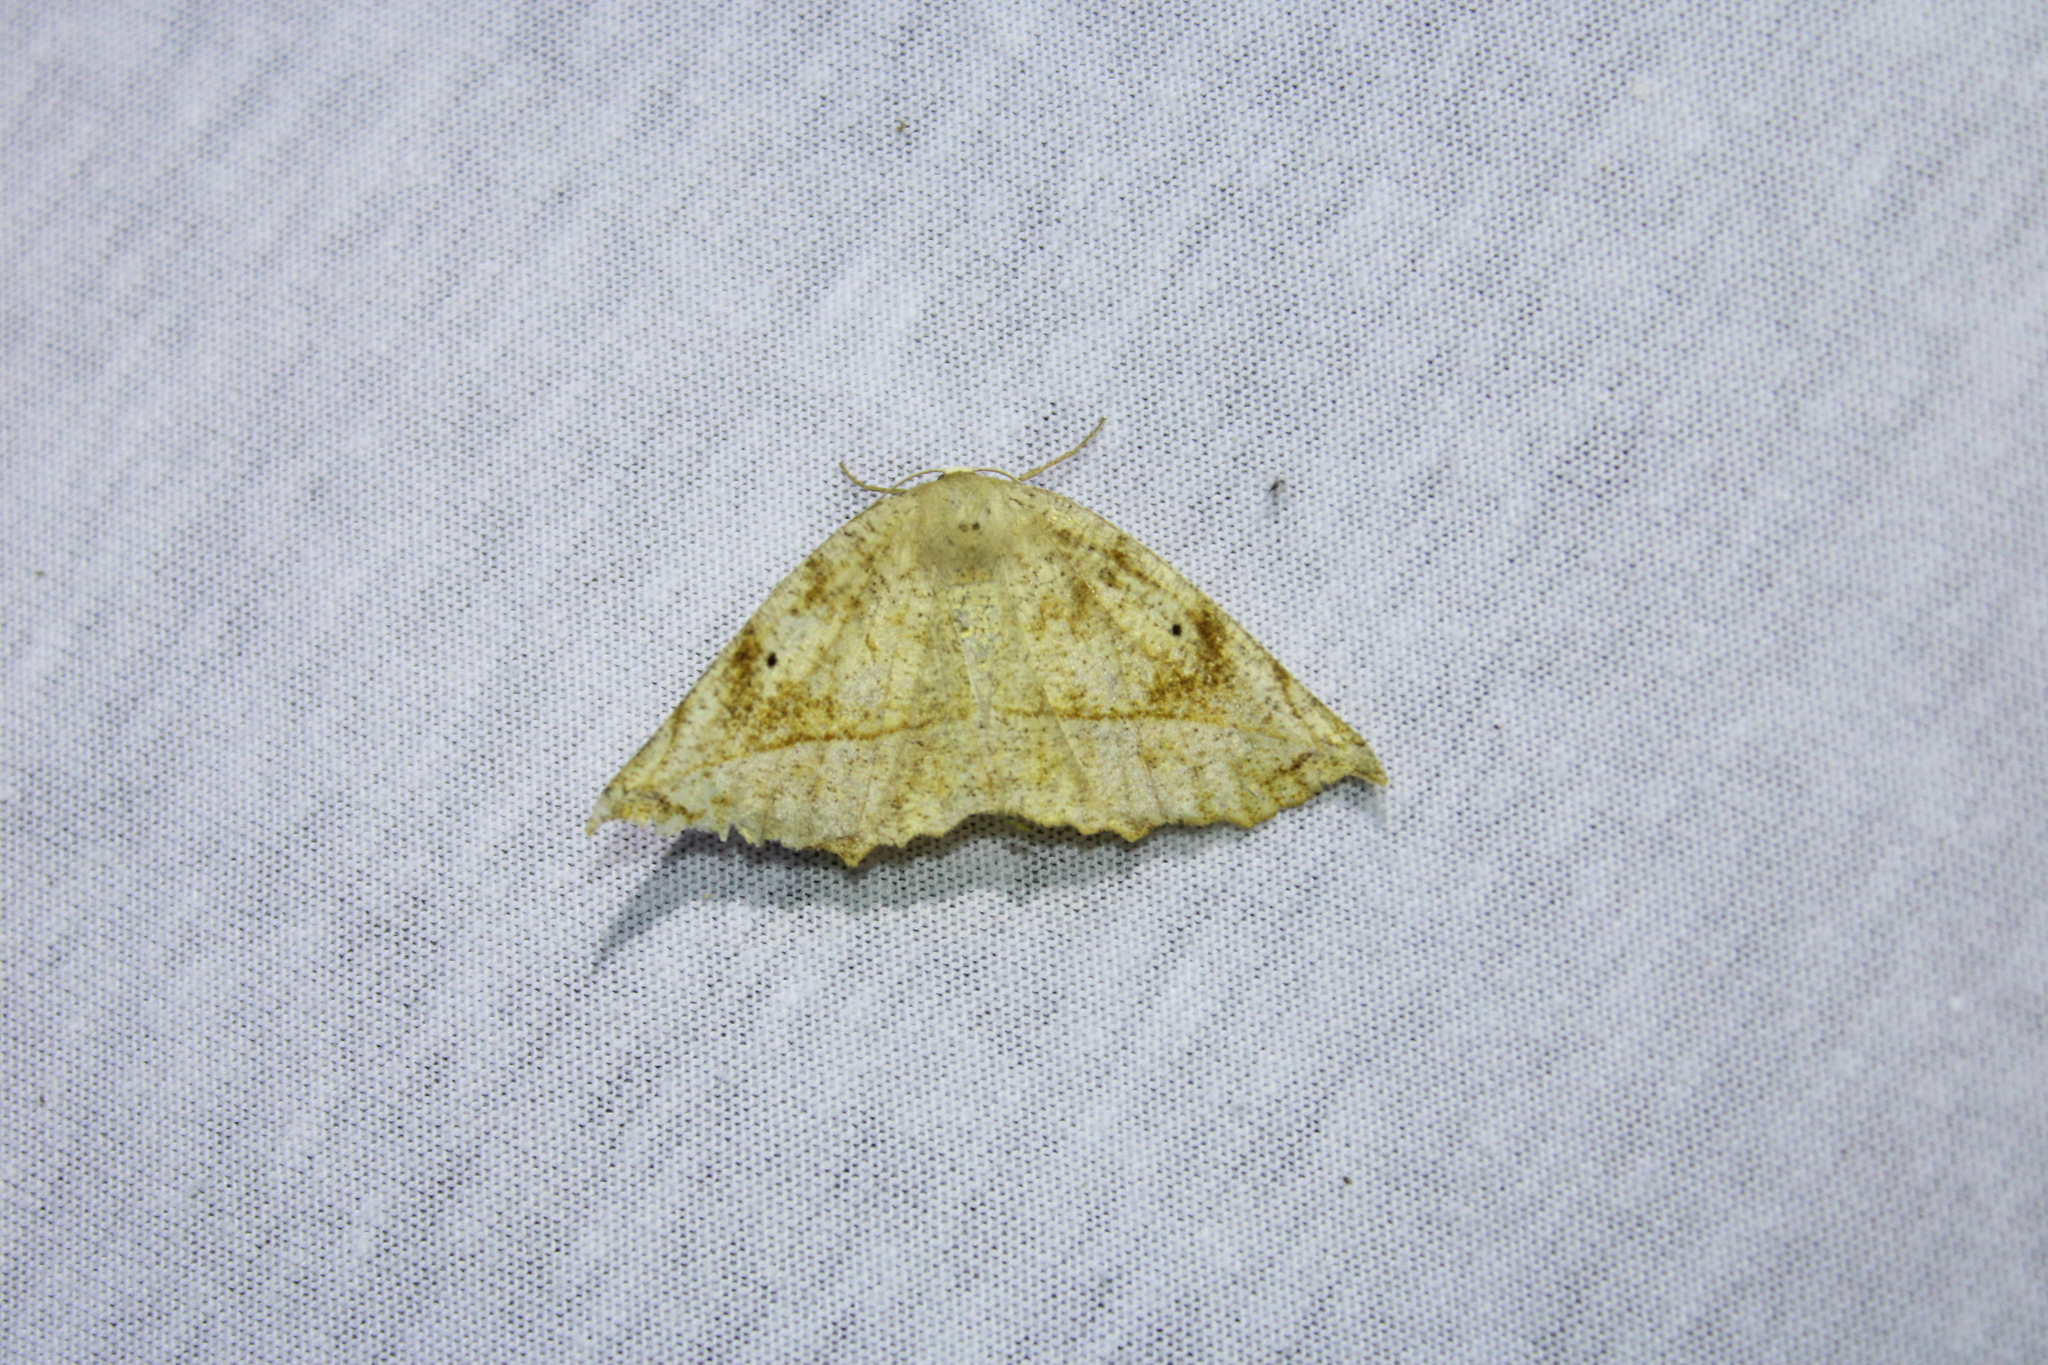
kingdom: Animalia
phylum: Arthropoda
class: Insecta
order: Lepidoptera
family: Geometridae
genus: Eutrapela
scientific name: Eutrapela clemataria
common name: Curved-toothed geometer
